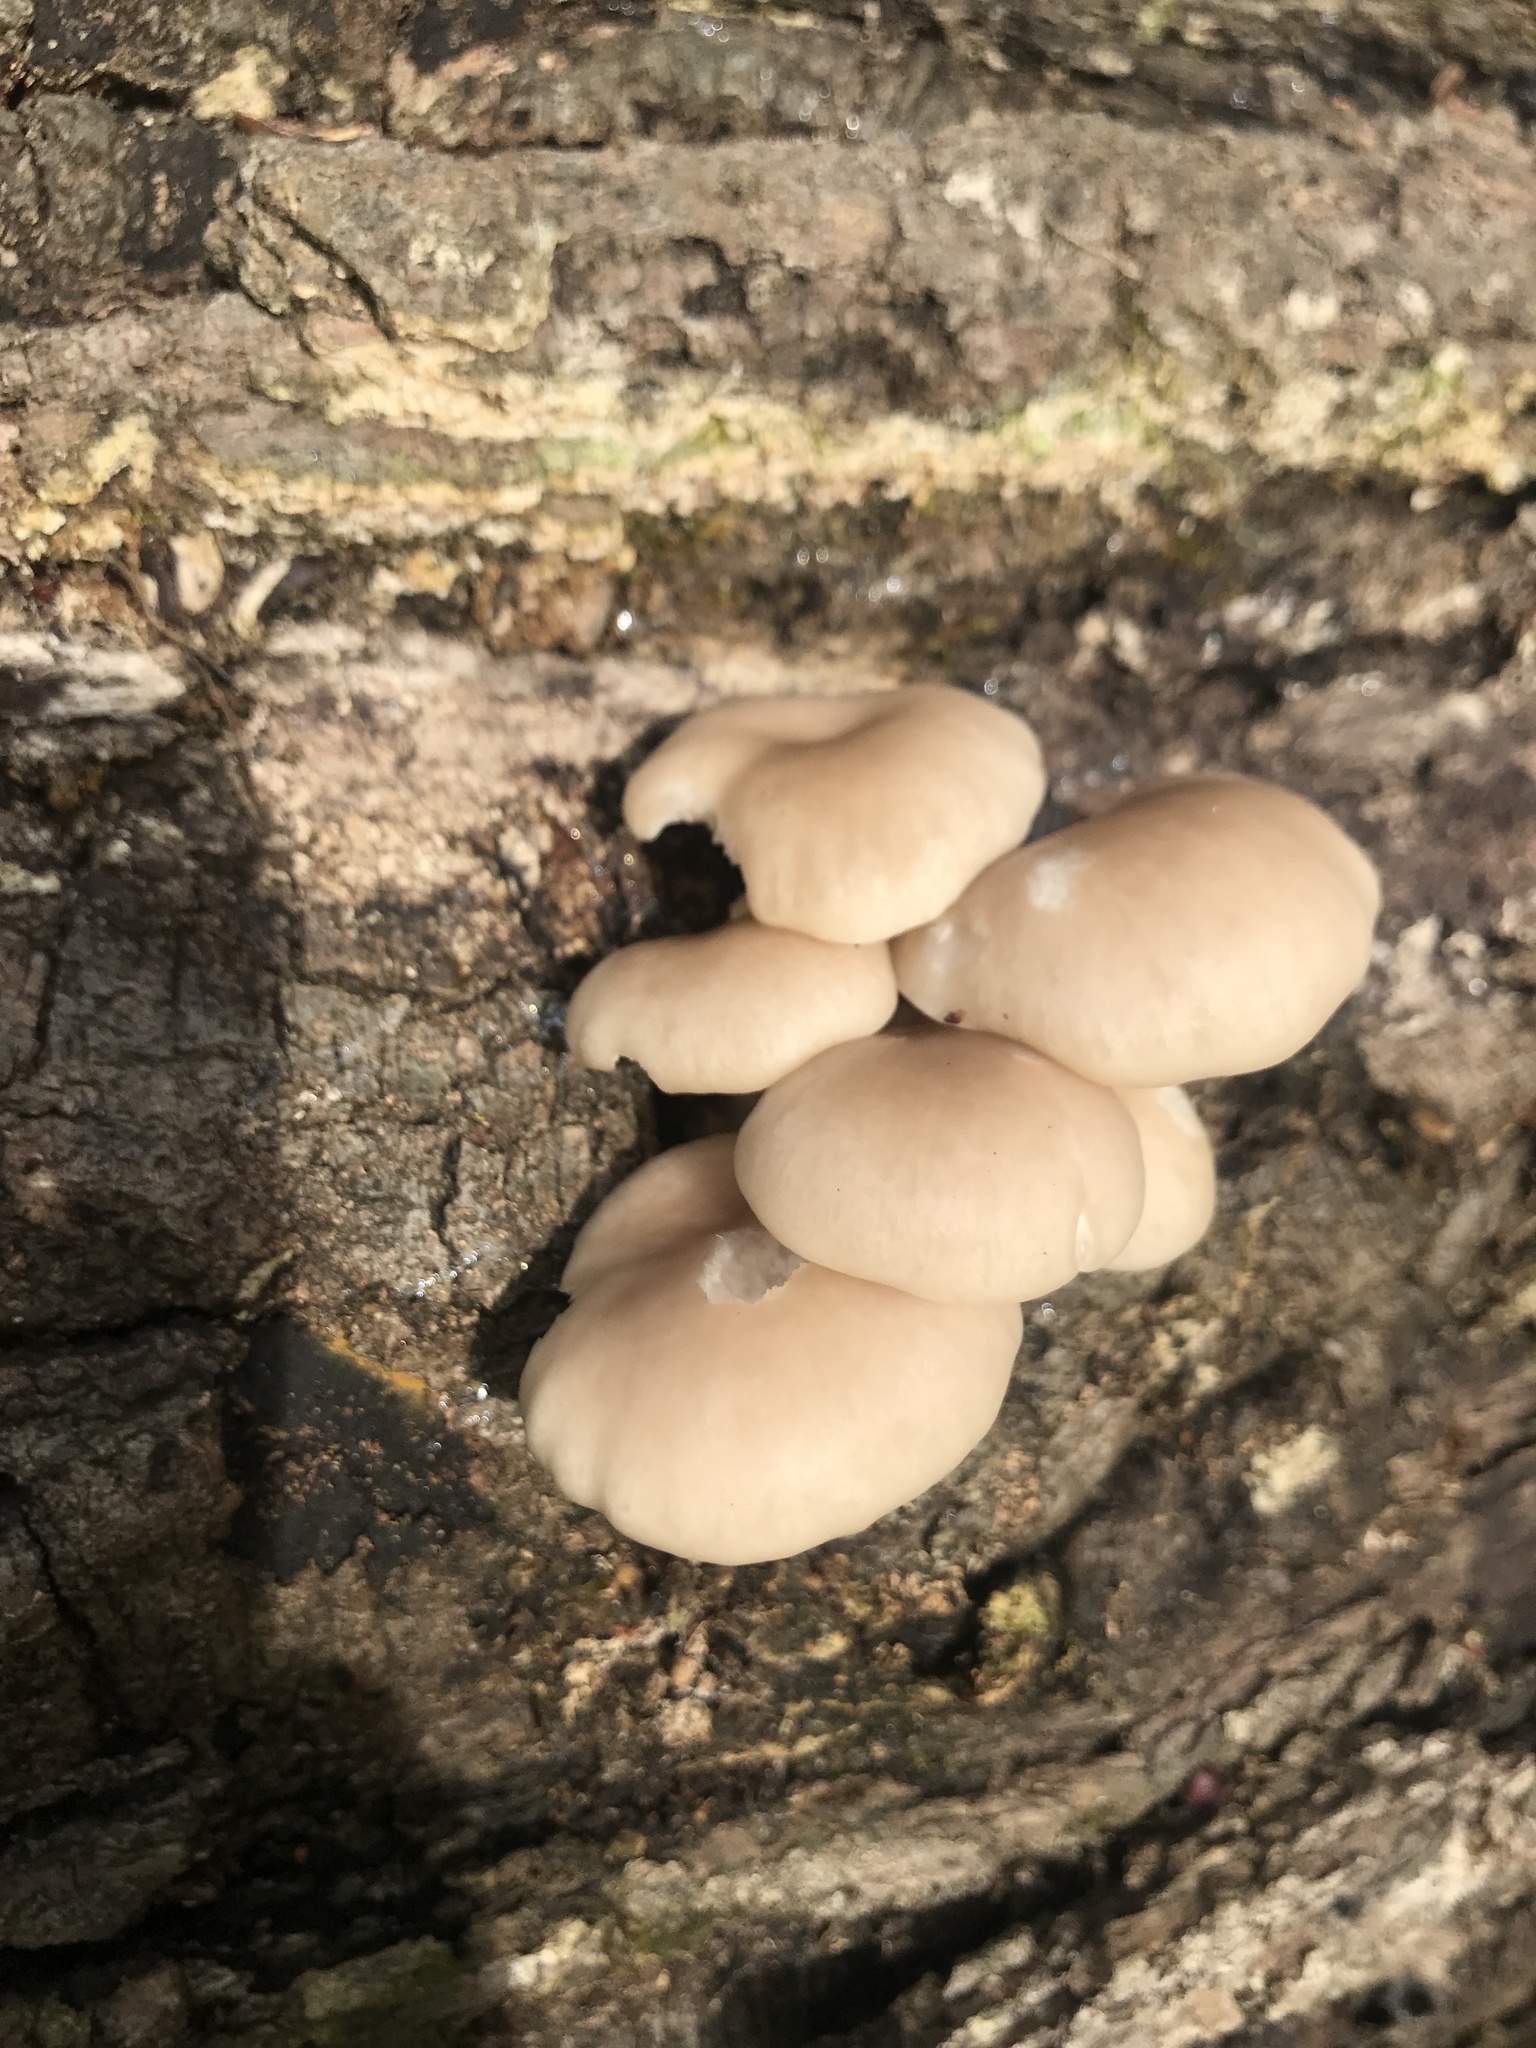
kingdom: Fungi
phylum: Basidiomycota
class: Agaricomycetes
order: Agaricales
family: Pleurotaceae
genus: Pleurotus
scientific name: Pleurotus ostreatus
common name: Oyster mushroom
